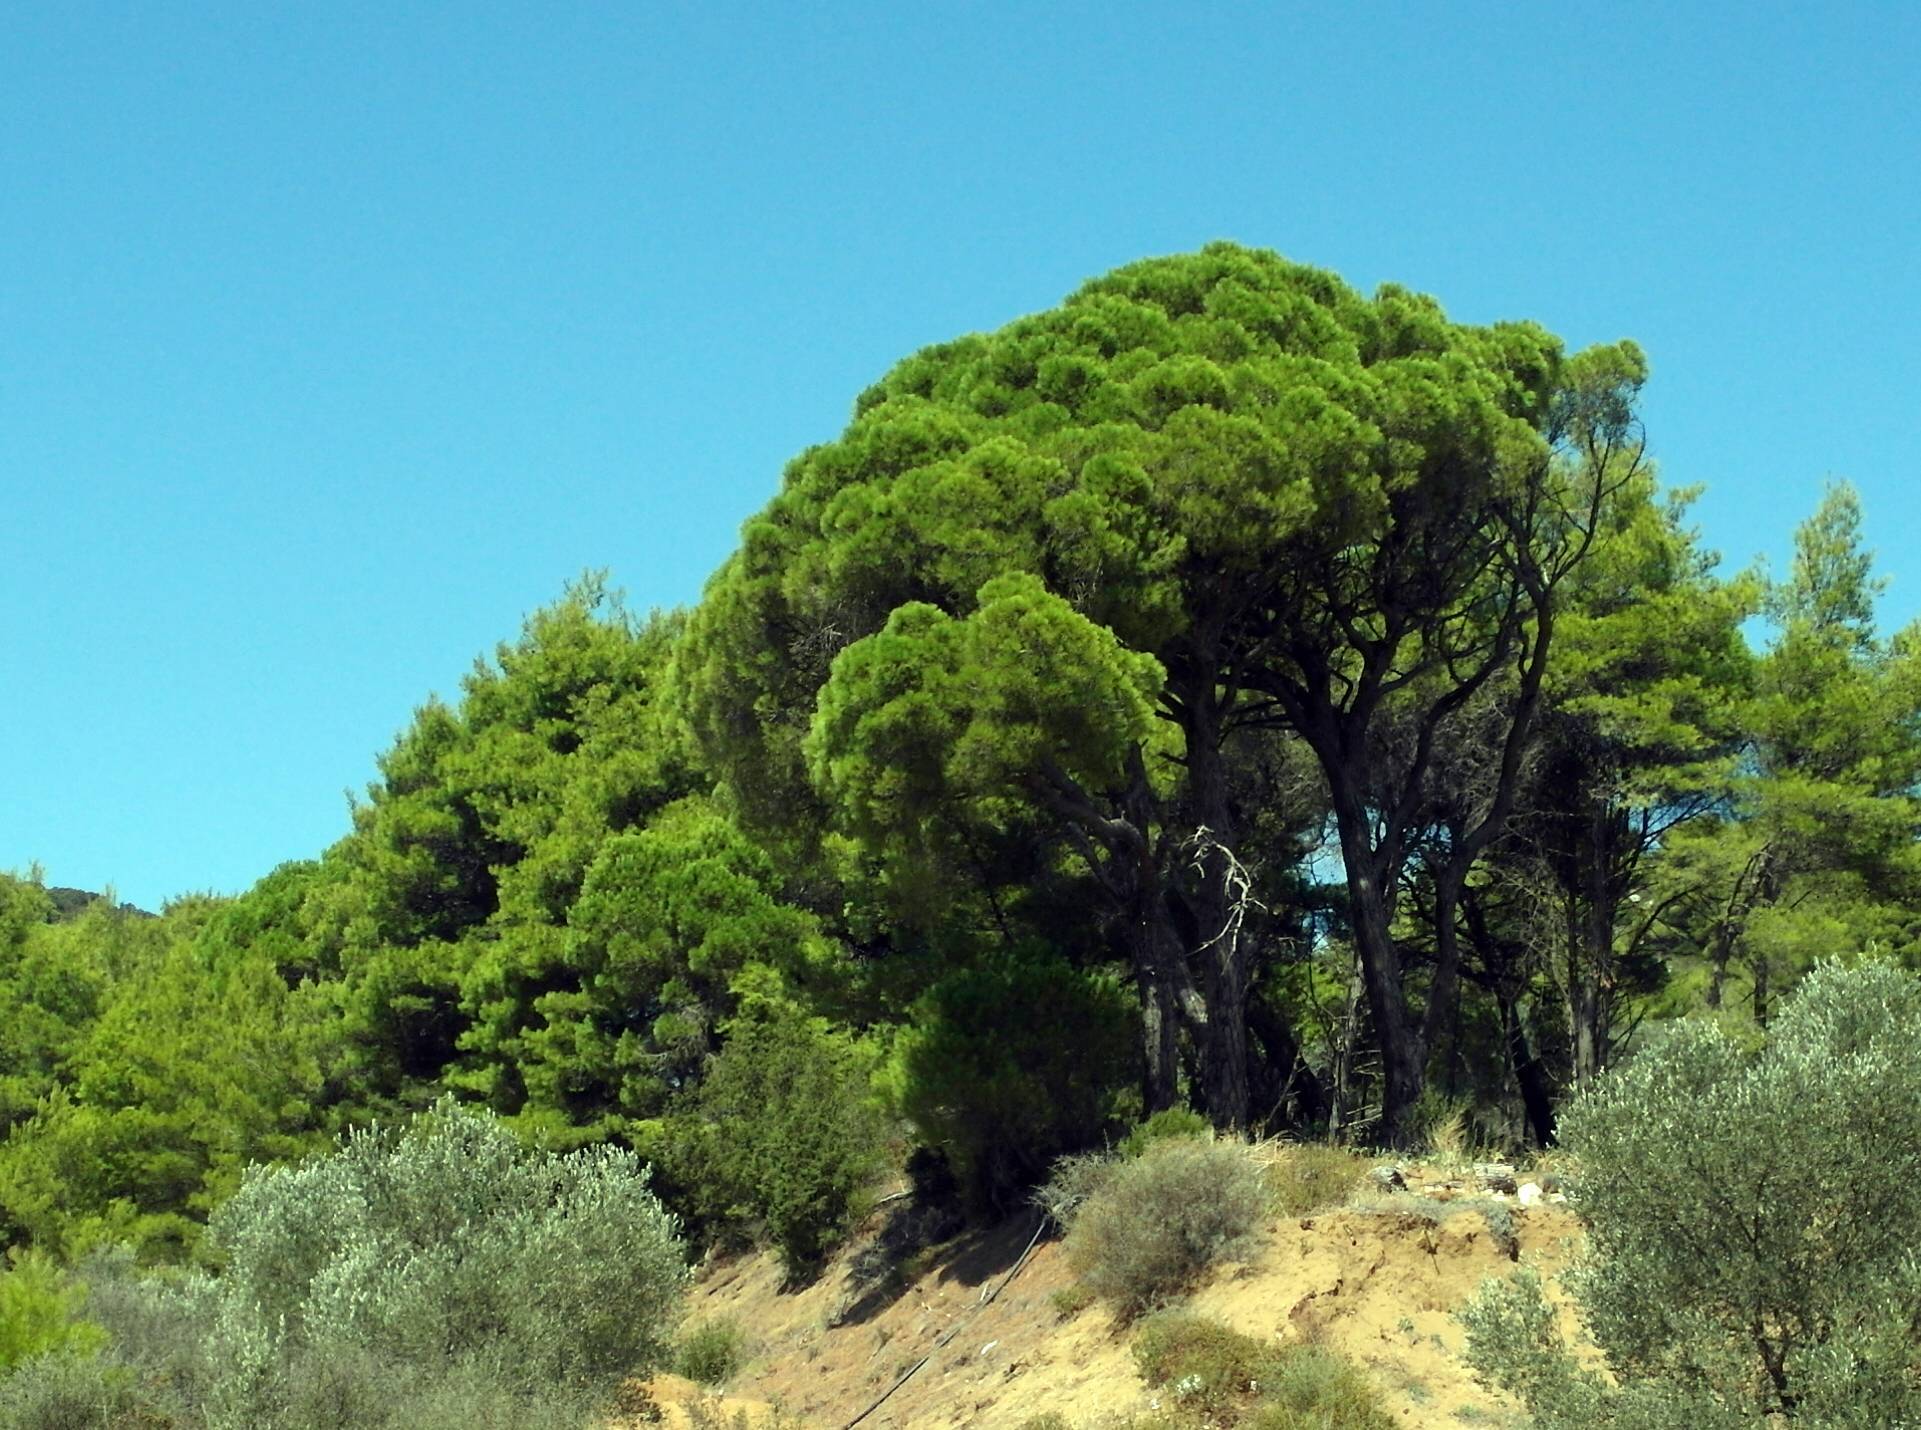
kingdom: Plantae
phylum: Tracheophyta
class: Pinopsida
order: Pinales
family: Pinaceae
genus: Pinus
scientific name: Pinus halepensis
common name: Aleppo pine
